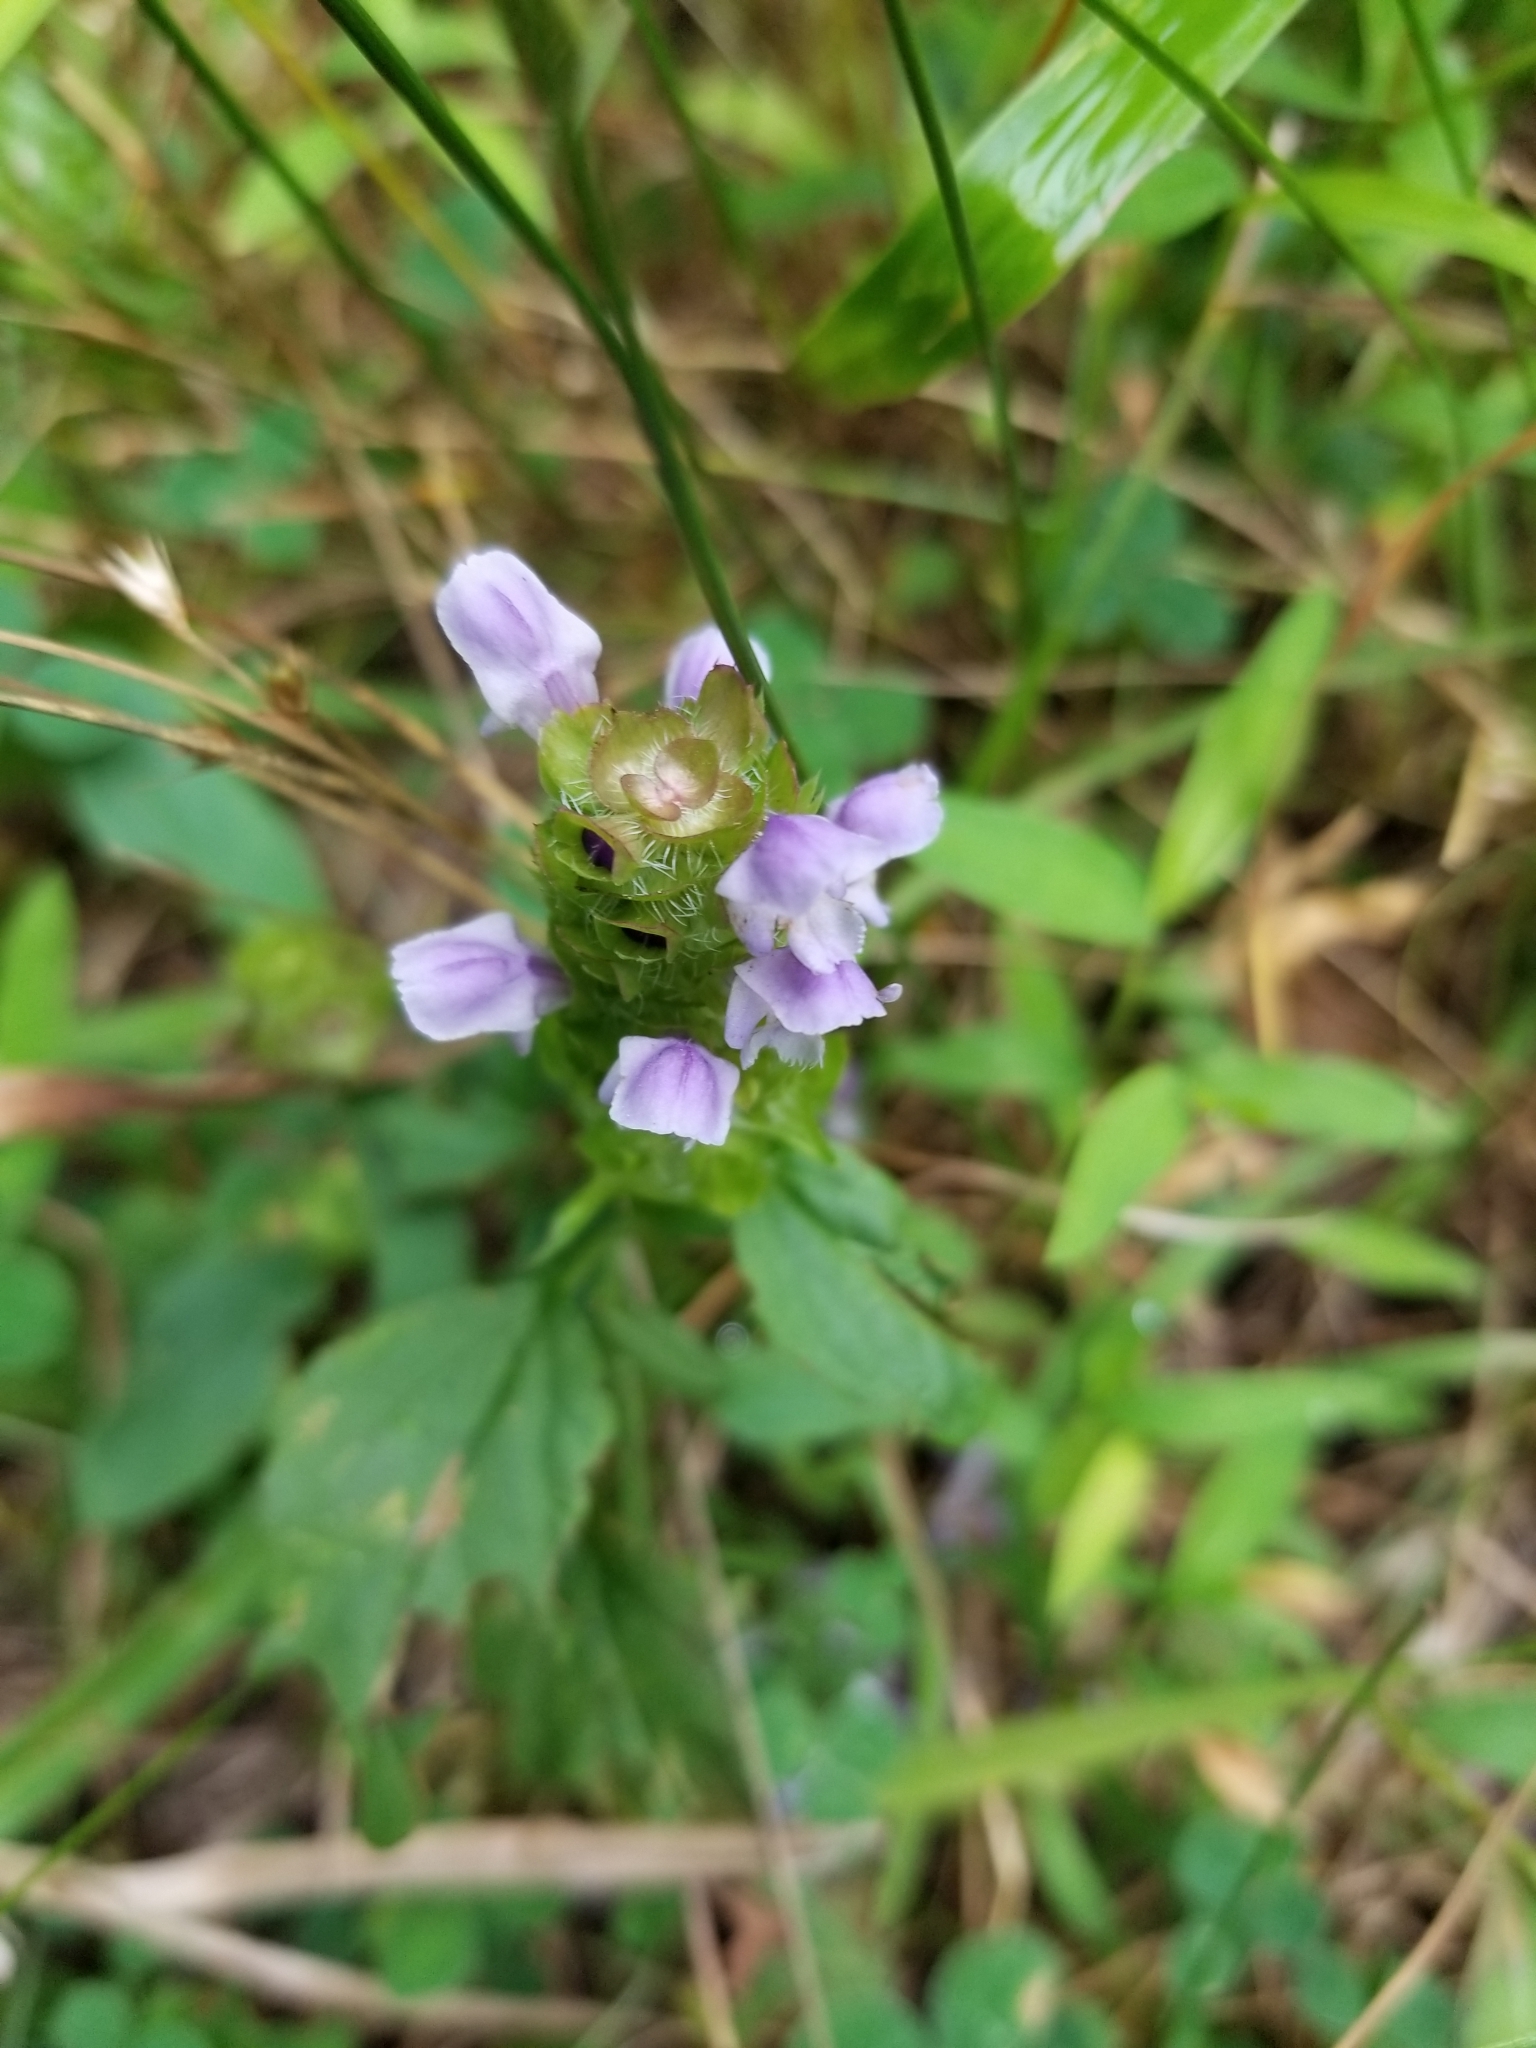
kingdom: Plantae
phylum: Tracheophyta
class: Magnoliopsida
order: Lamiales
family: Lamiaceae
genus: Prunella
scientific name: Prunella vulgaris
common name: Heal-all
